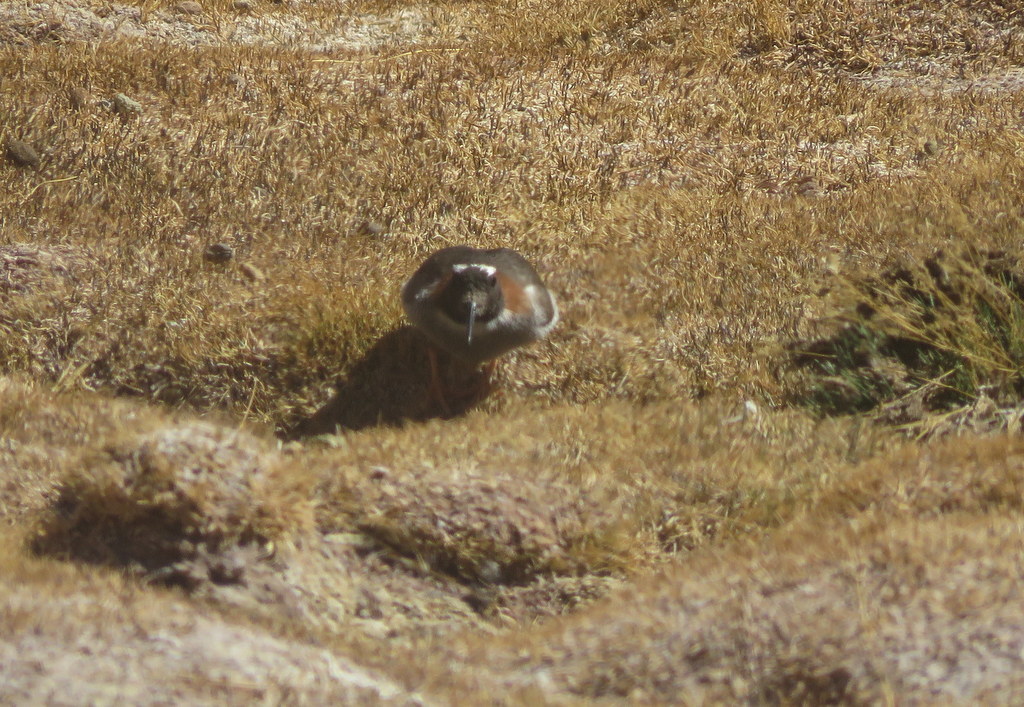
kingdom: Animalia
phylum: Chordata
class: Aves
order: Charadriiformes
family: Charadriidae
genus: Phegornis
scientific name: Phegornis mitchellii
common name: Diademed sandpiper-plover
